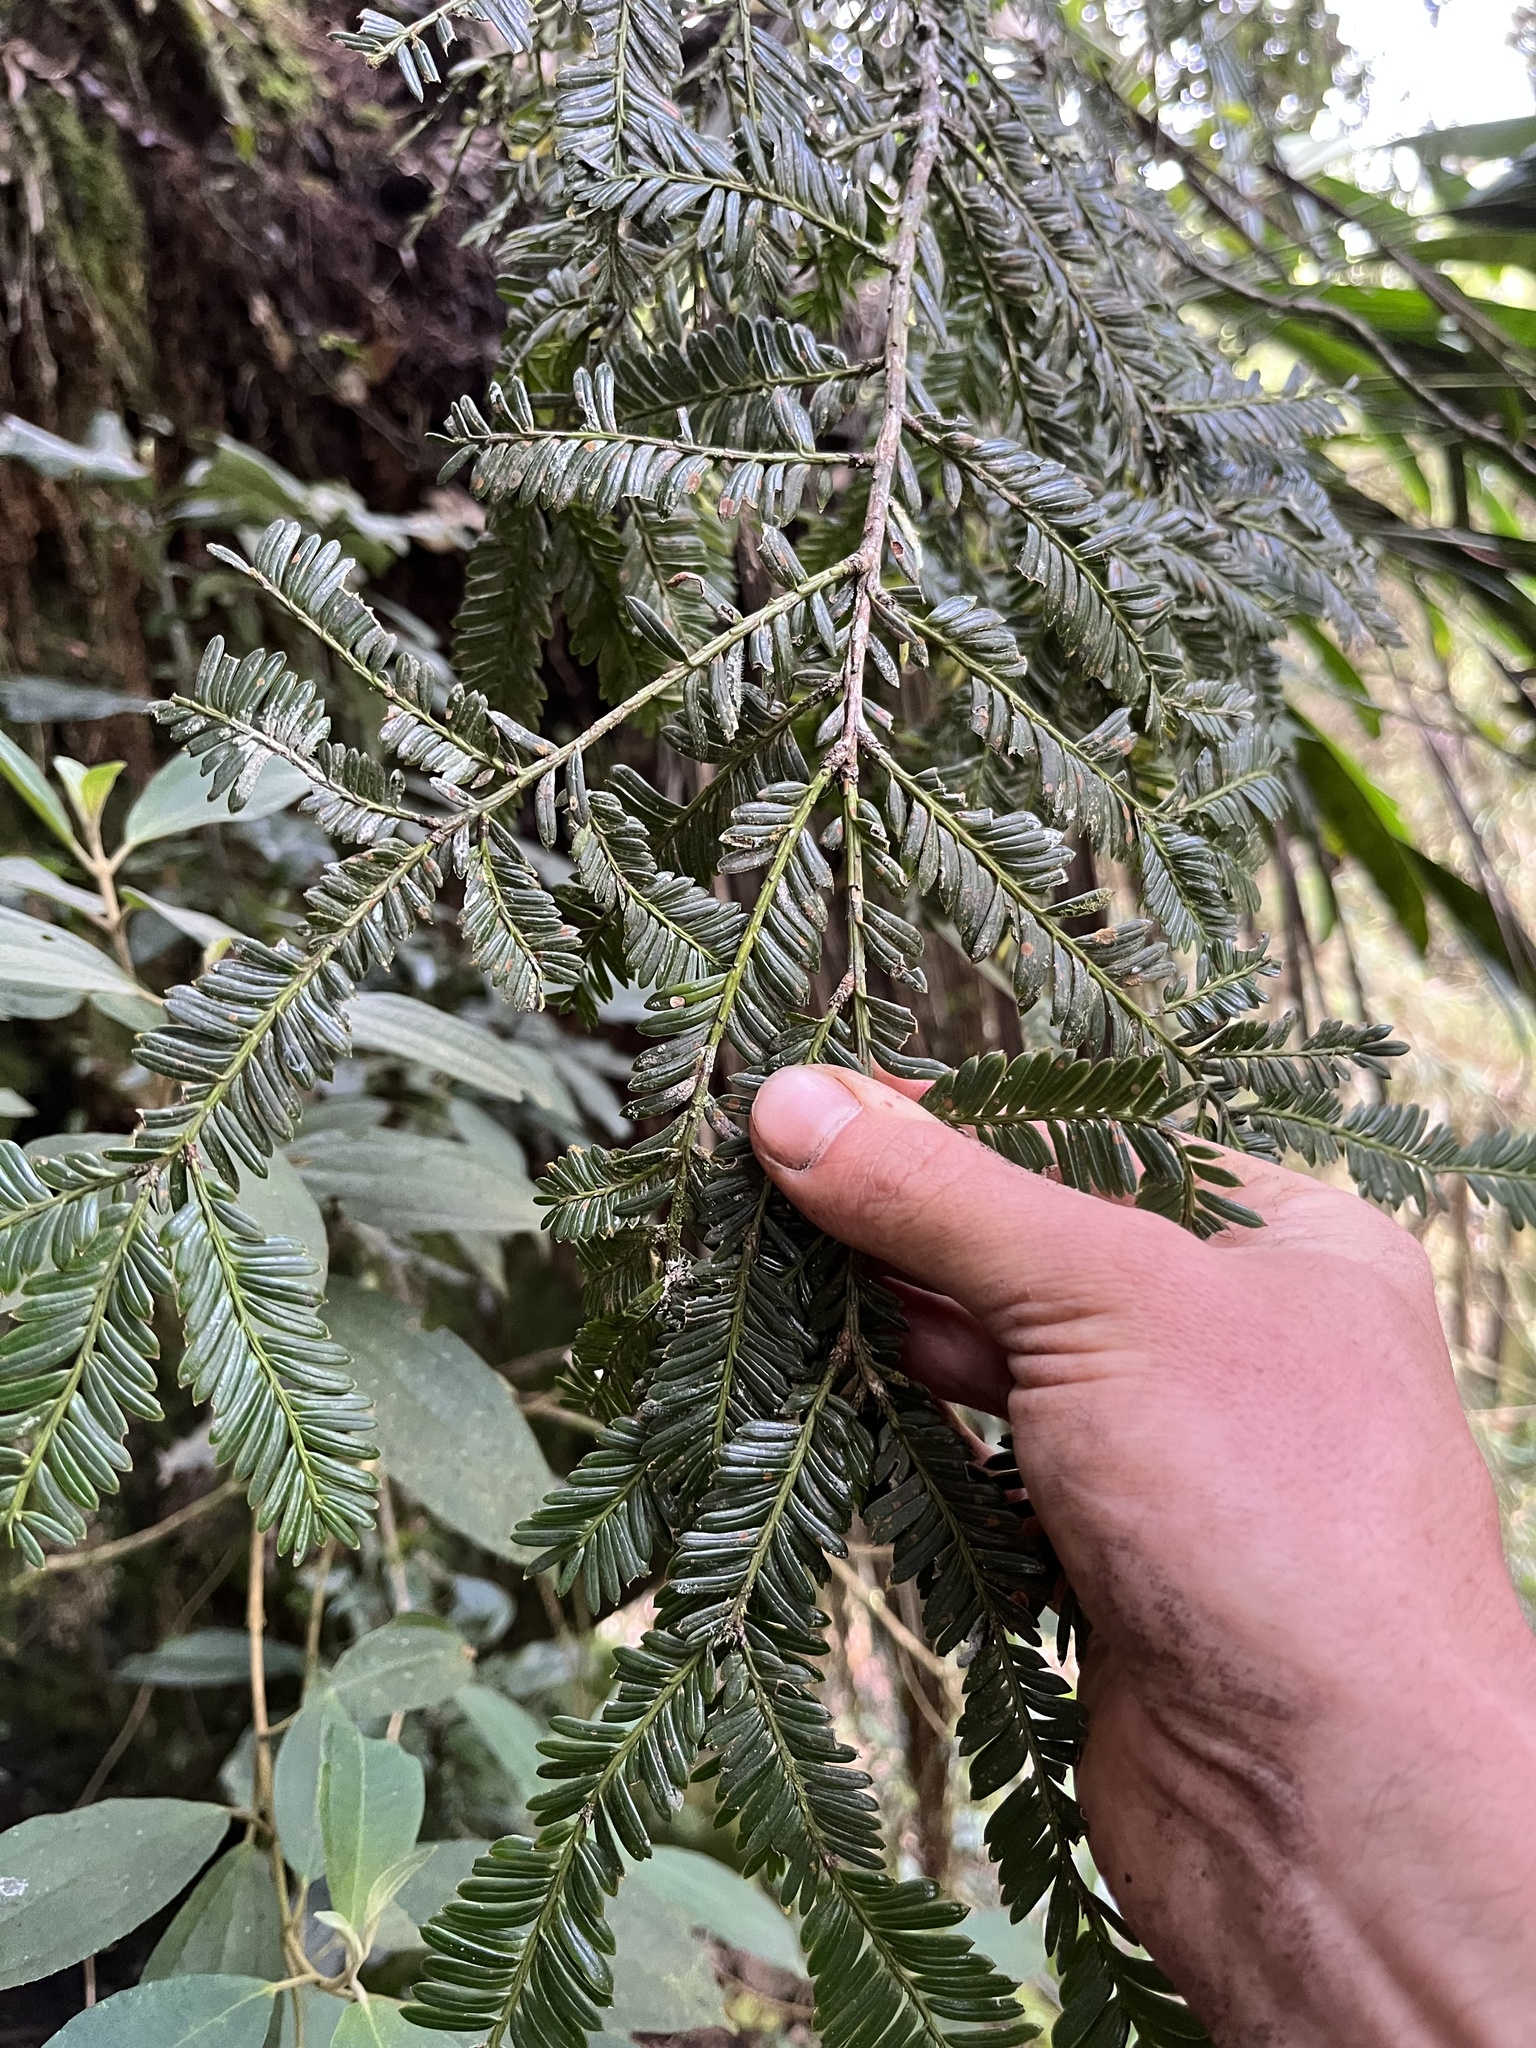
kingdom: Plantae
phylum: Tracheophyta
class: Pinopsida
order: Pinales
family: Podocarpaceae
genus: Prumnopitys
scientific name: Prumnopitys montana
